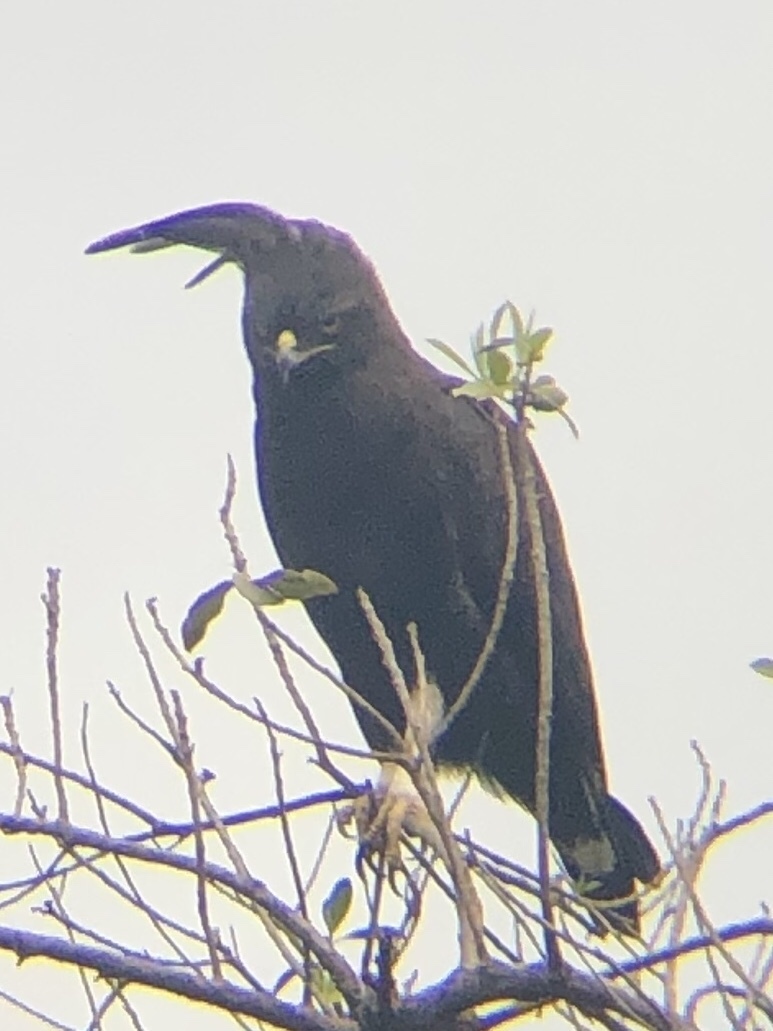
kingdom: Animalia
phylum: Chordata
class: Aves
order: Accipitriformes
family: Accipitridae
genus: Lophaetus
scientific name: Lophaetus occipitalis
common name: Long-crested eagle
